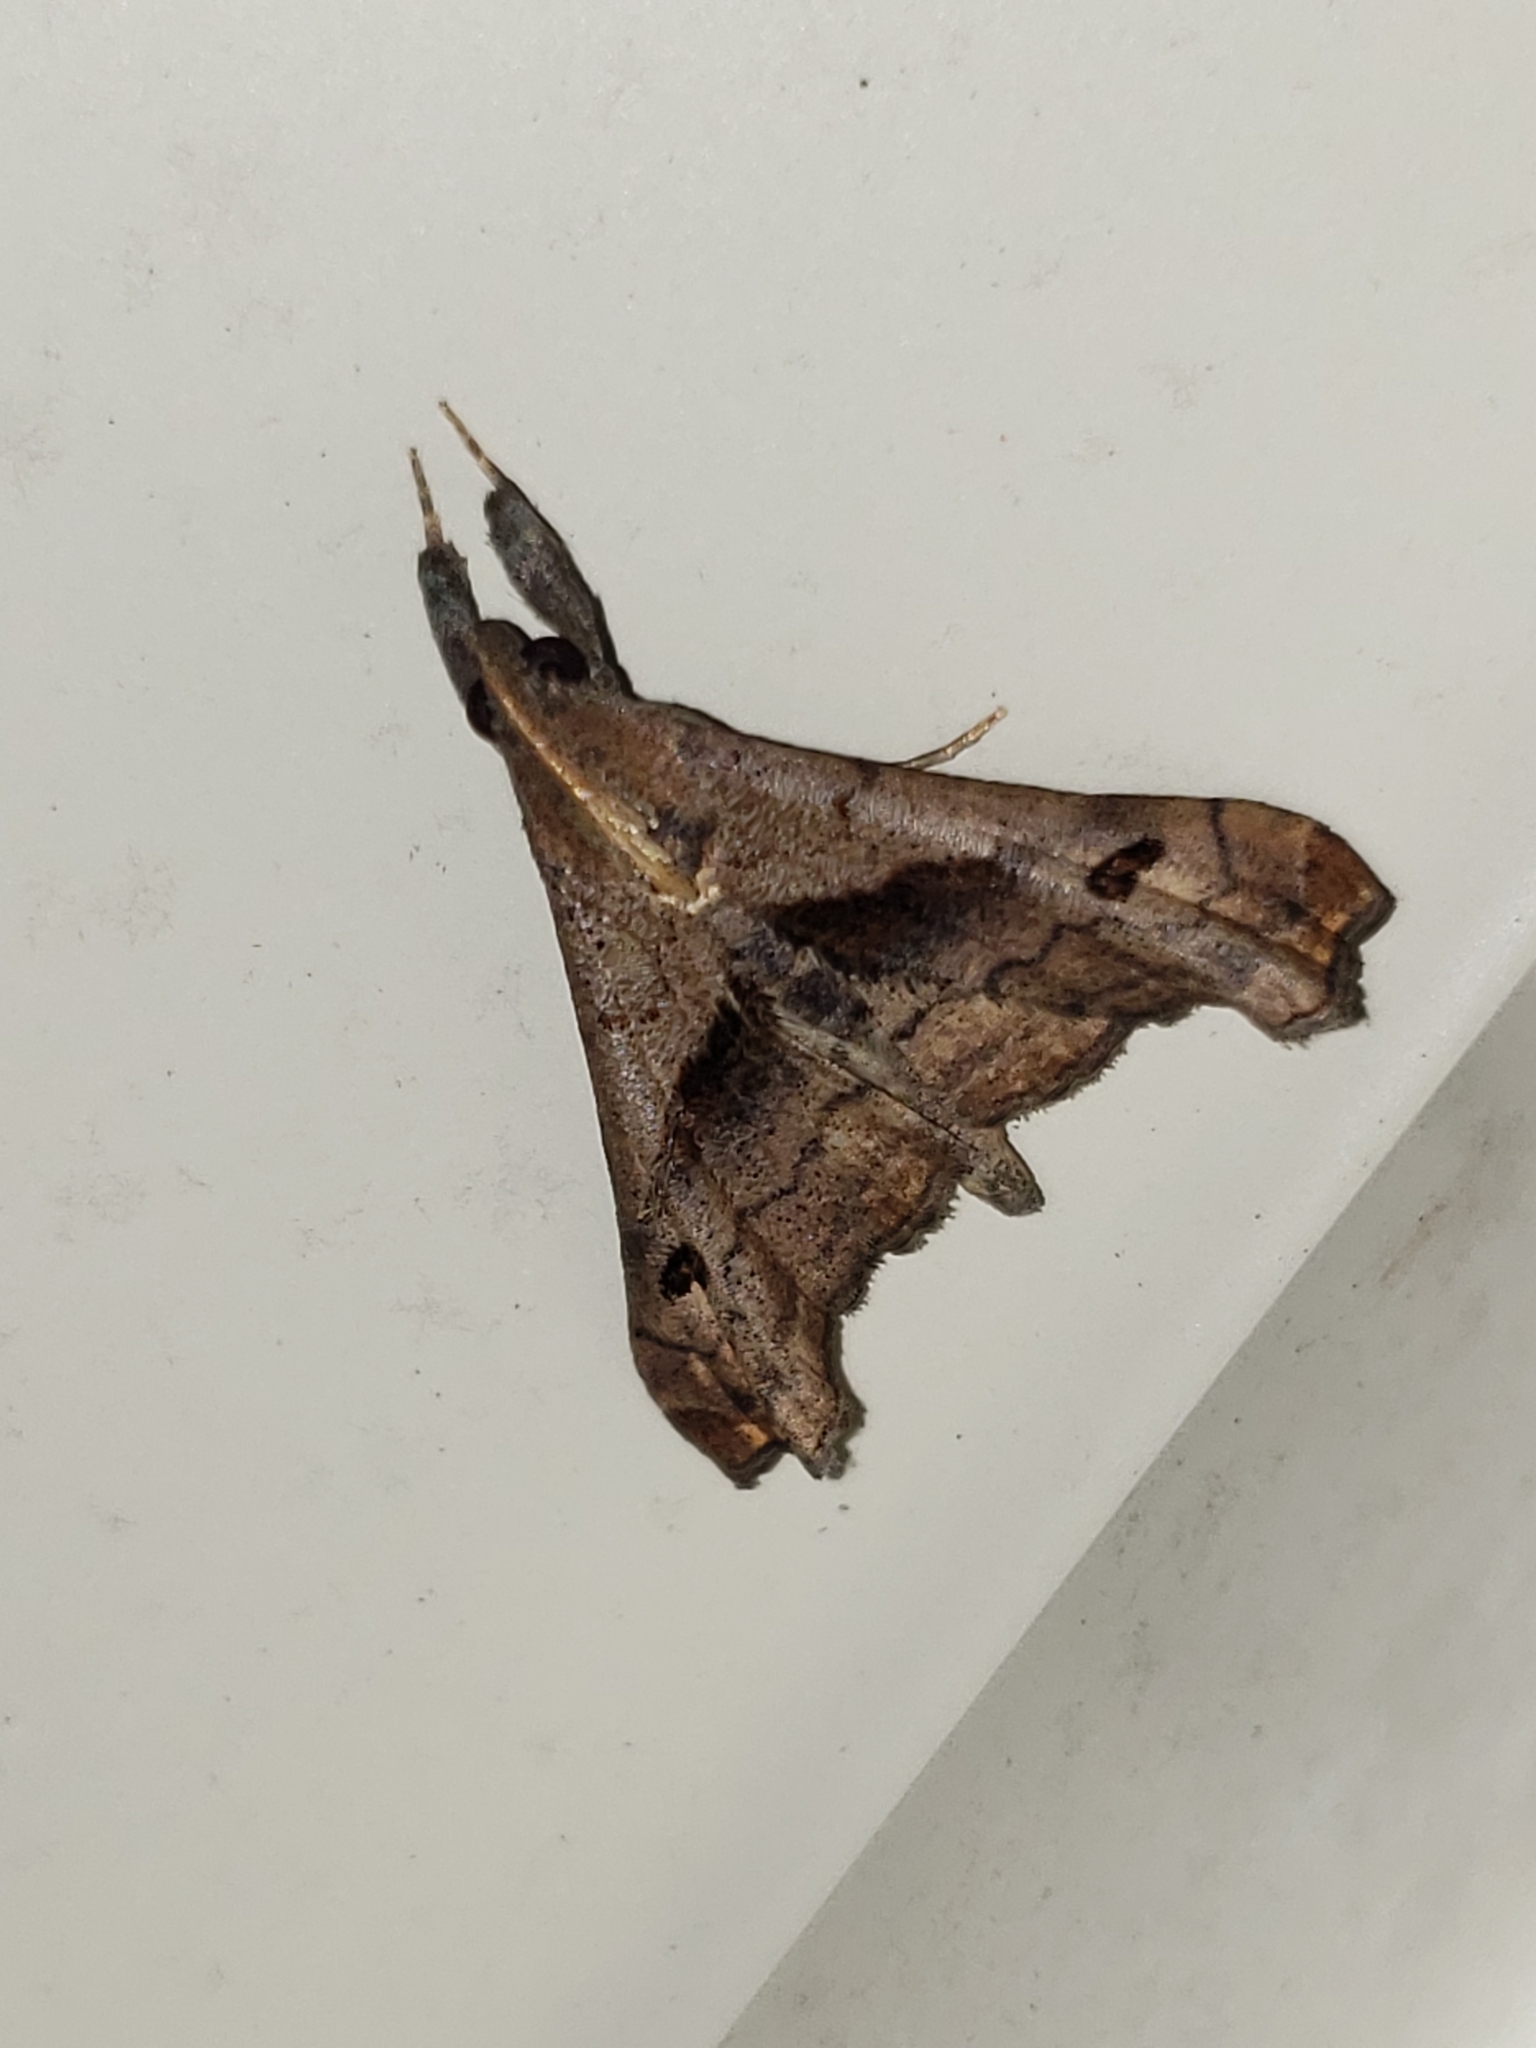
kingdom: Animalia
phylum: Arthropoda
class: Insecta
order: Lepidoptera
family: Erebidae
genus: Palthis
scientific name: Palthis angulalis
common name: Dark-spotted palthis moth
